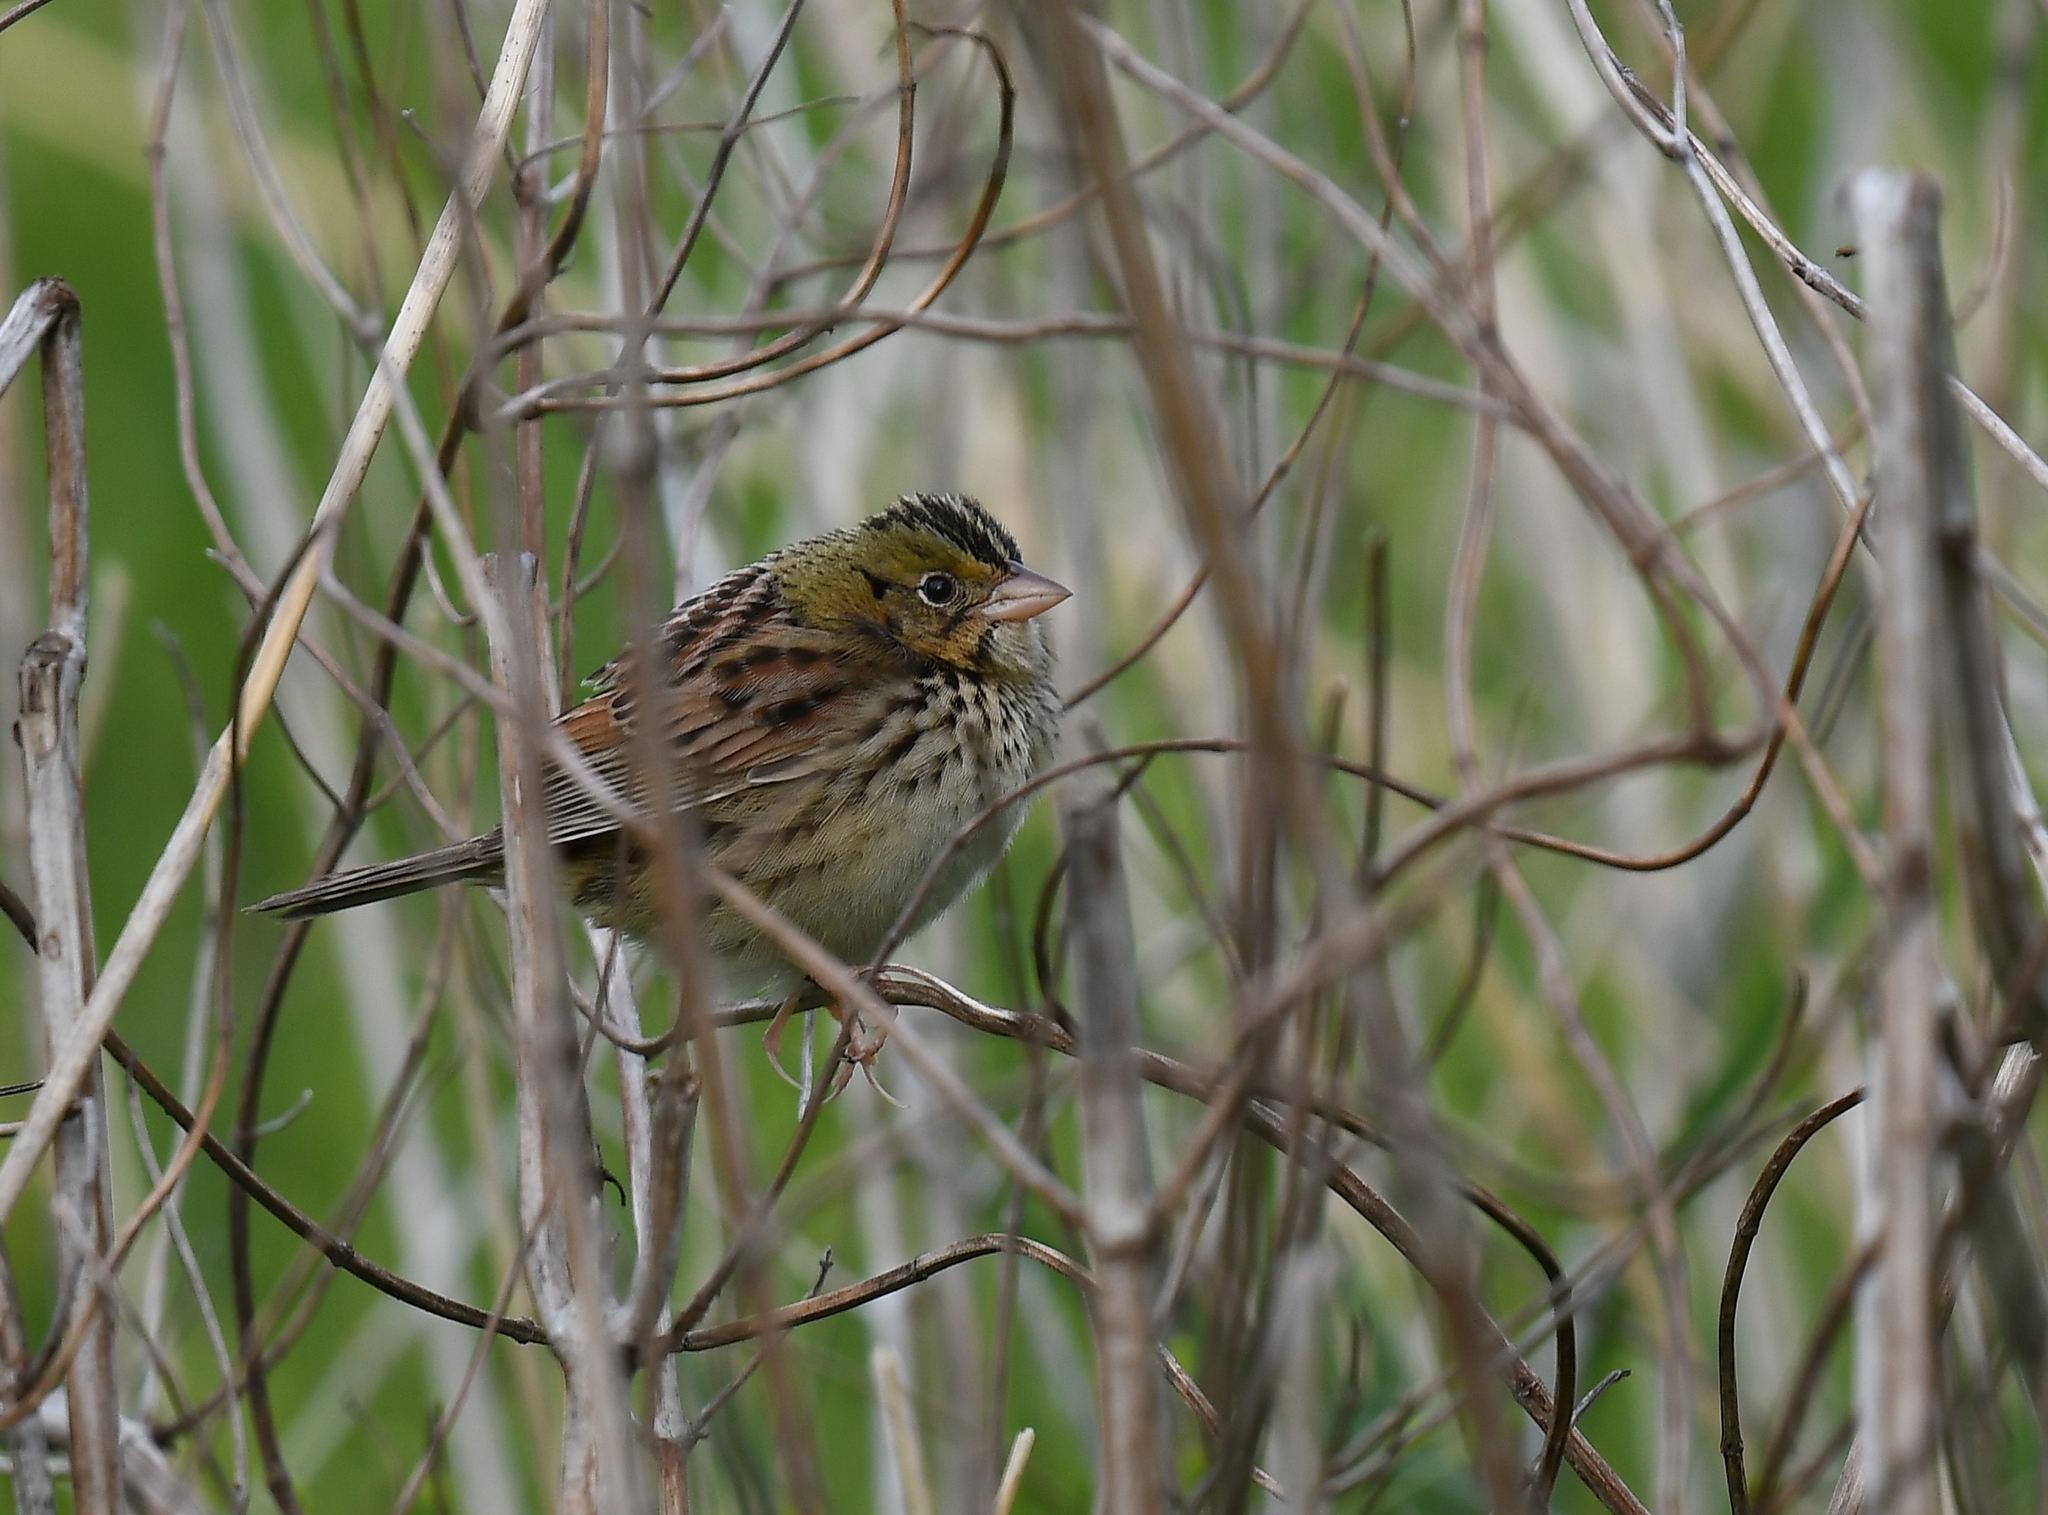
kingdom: Animalia
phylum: Chordata
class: Aves
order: Passeriformes
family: Passerellidae
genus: Centronyx
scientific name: Centronyx henslowii
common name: Henslow's sparrow
